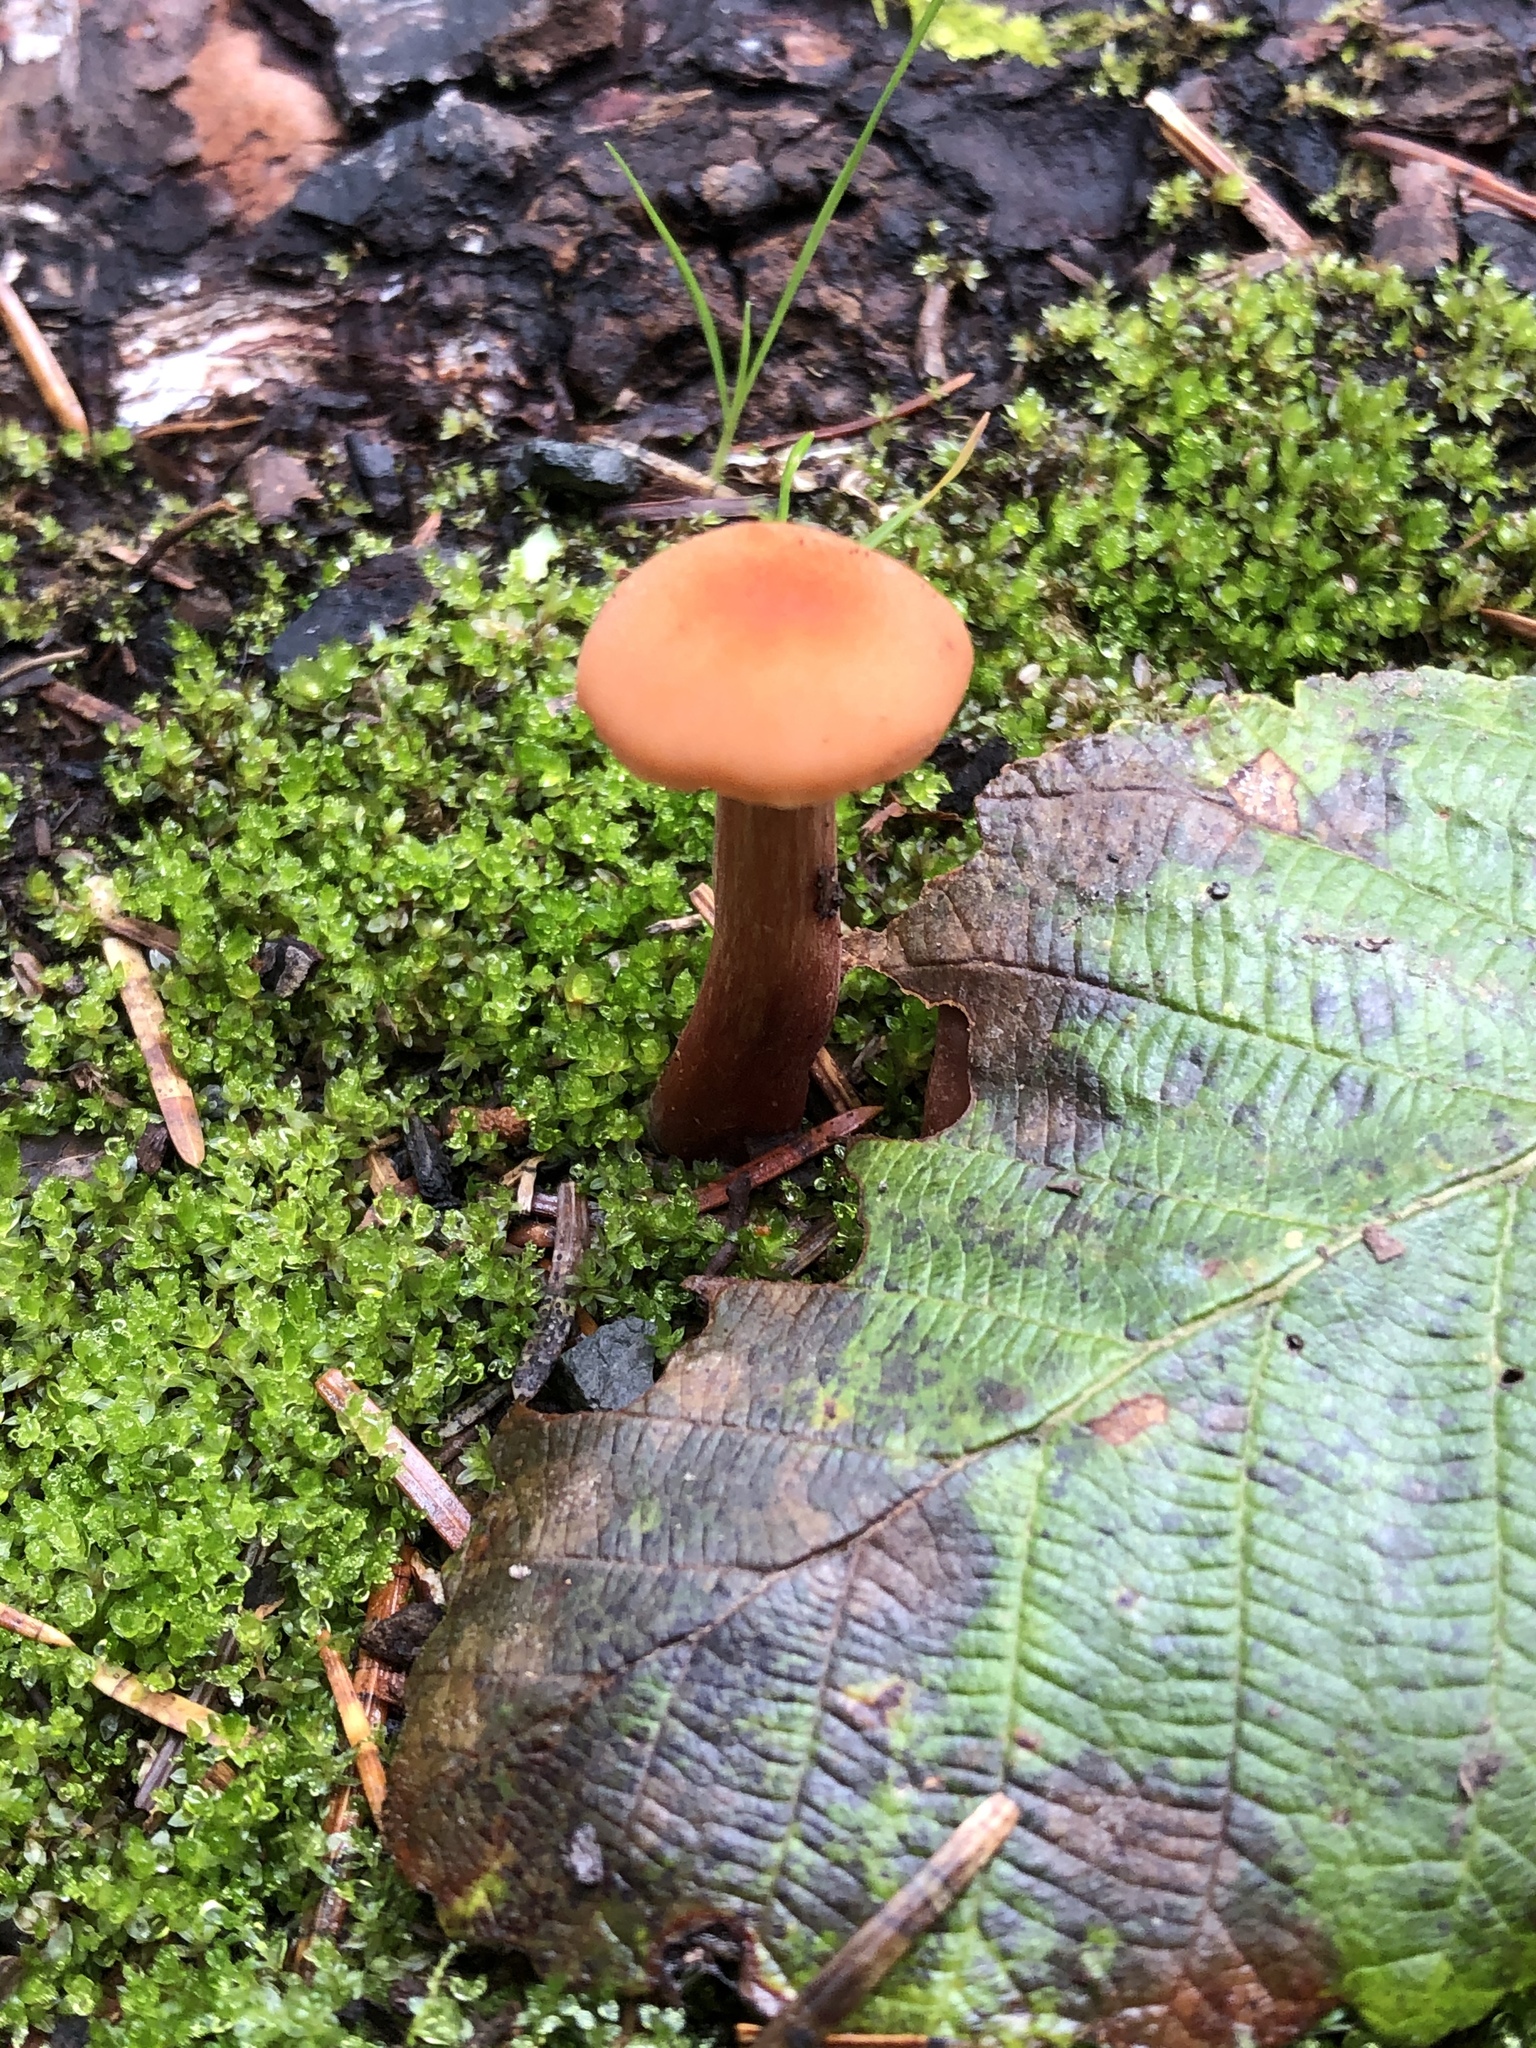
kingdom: Fungi
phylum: Basidiomycota
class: Agaricomycetes
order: Agaricales
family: Hydnangiaceae
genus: Laccaria
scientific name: Laccaria laccata
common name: Deceiver
